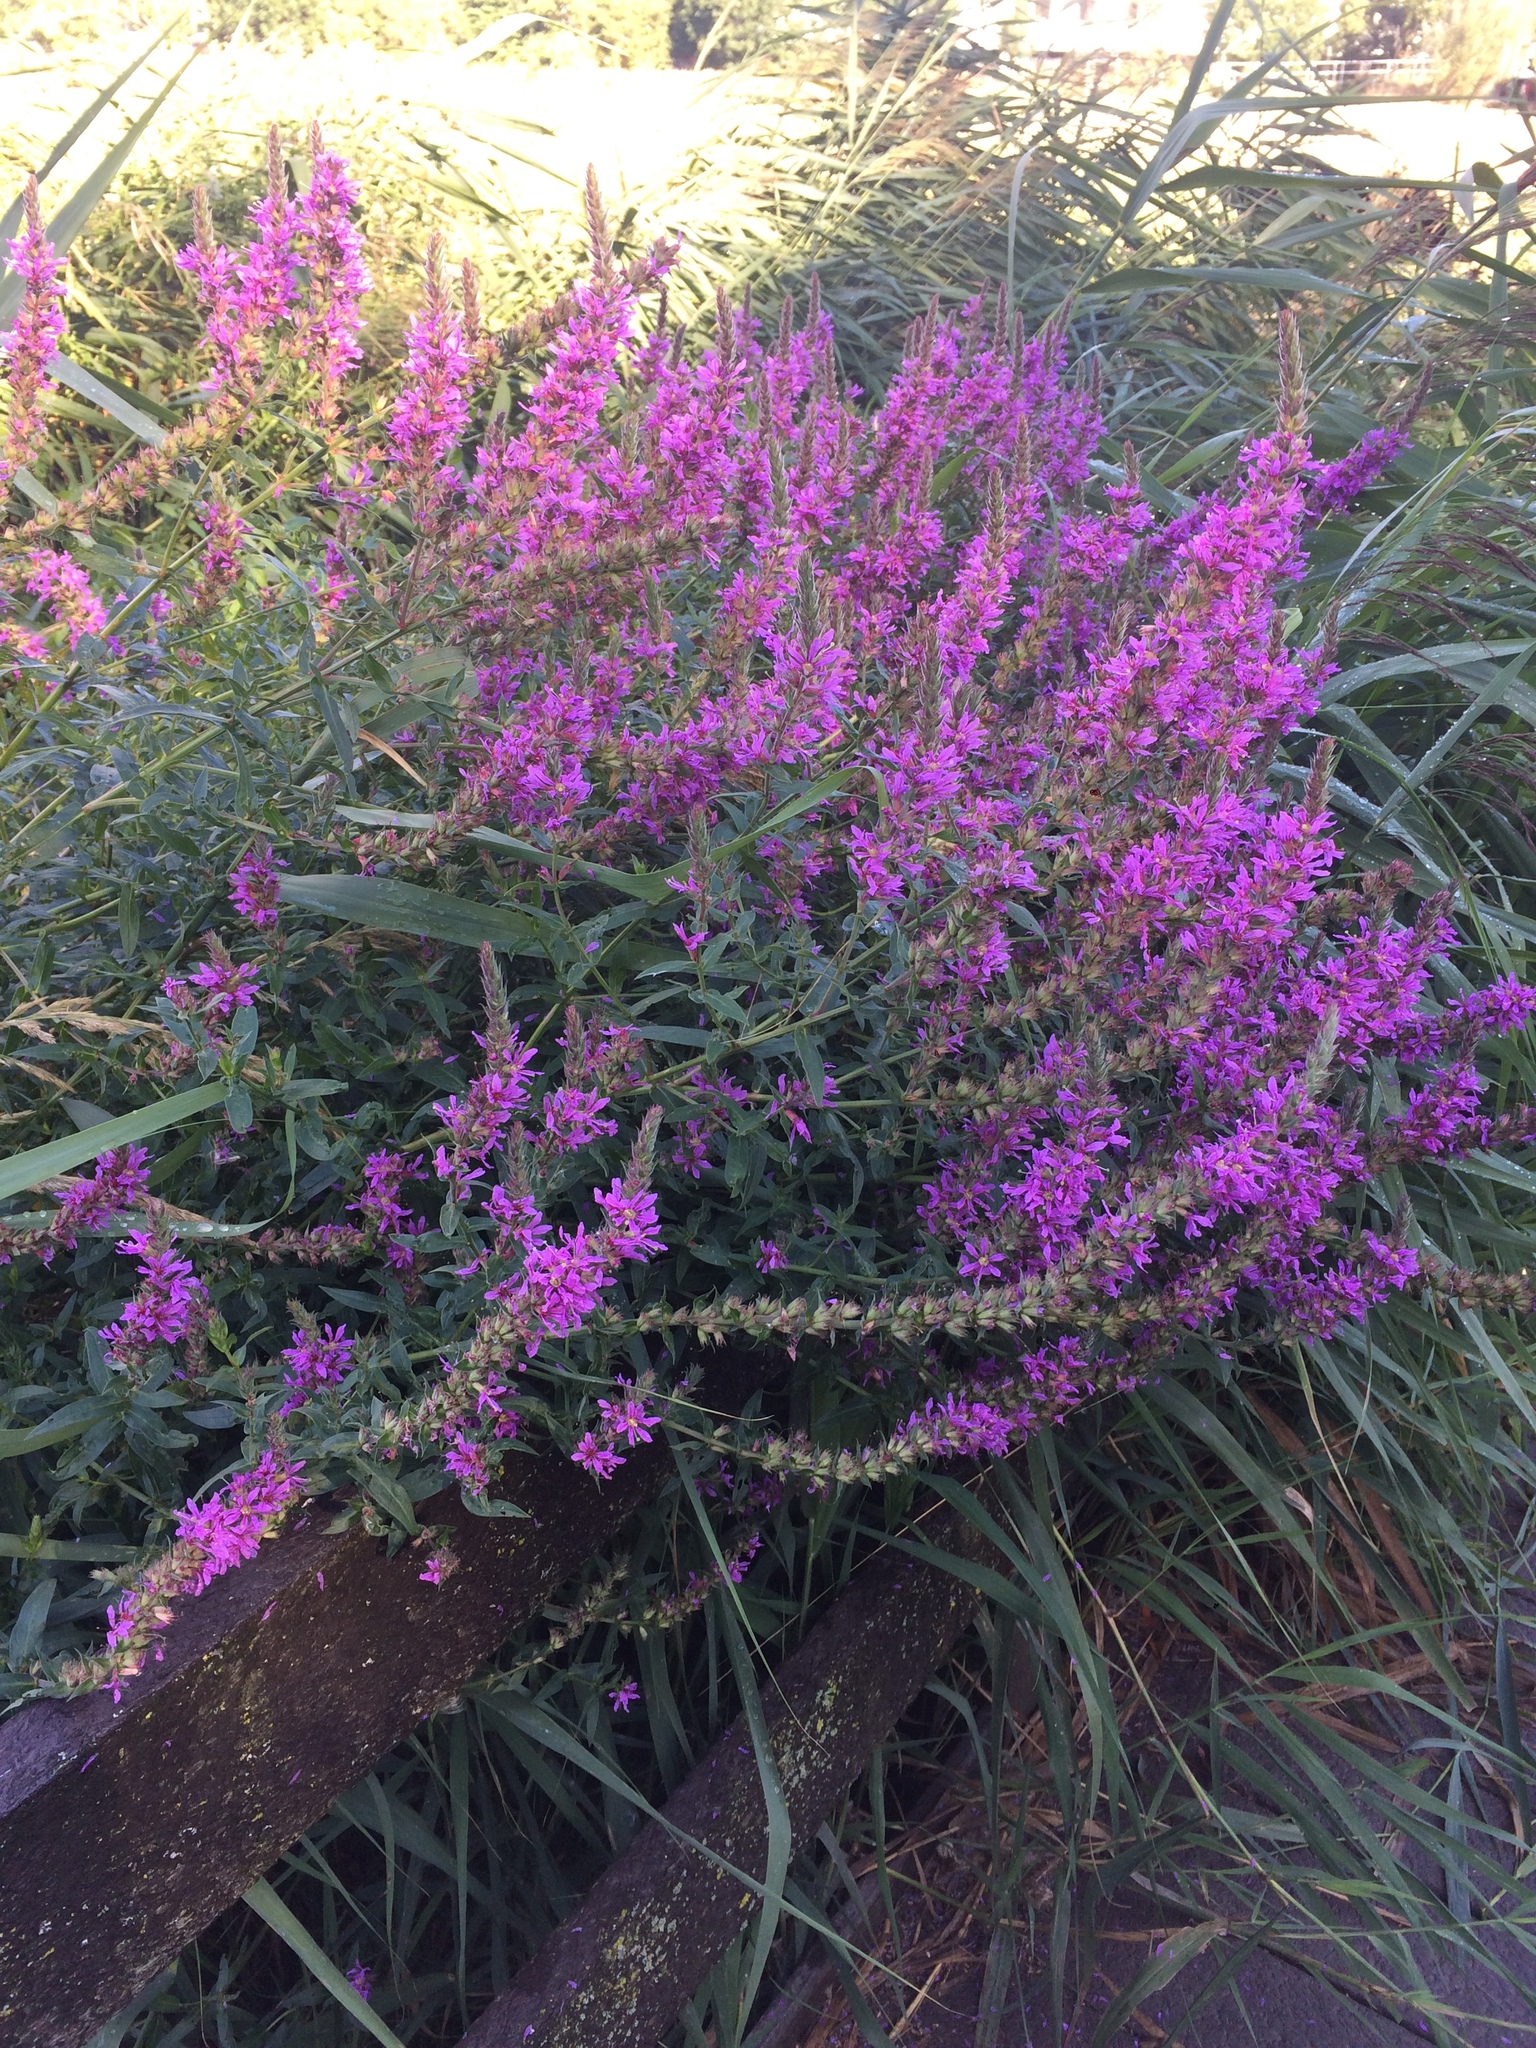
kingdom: Plantae
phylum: Tracheophyta
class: Magnoliopsida
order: Myrtales
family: Lythraceae
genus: Lythrum
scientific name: Lythrum salicaria
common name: Purple loosestrife
